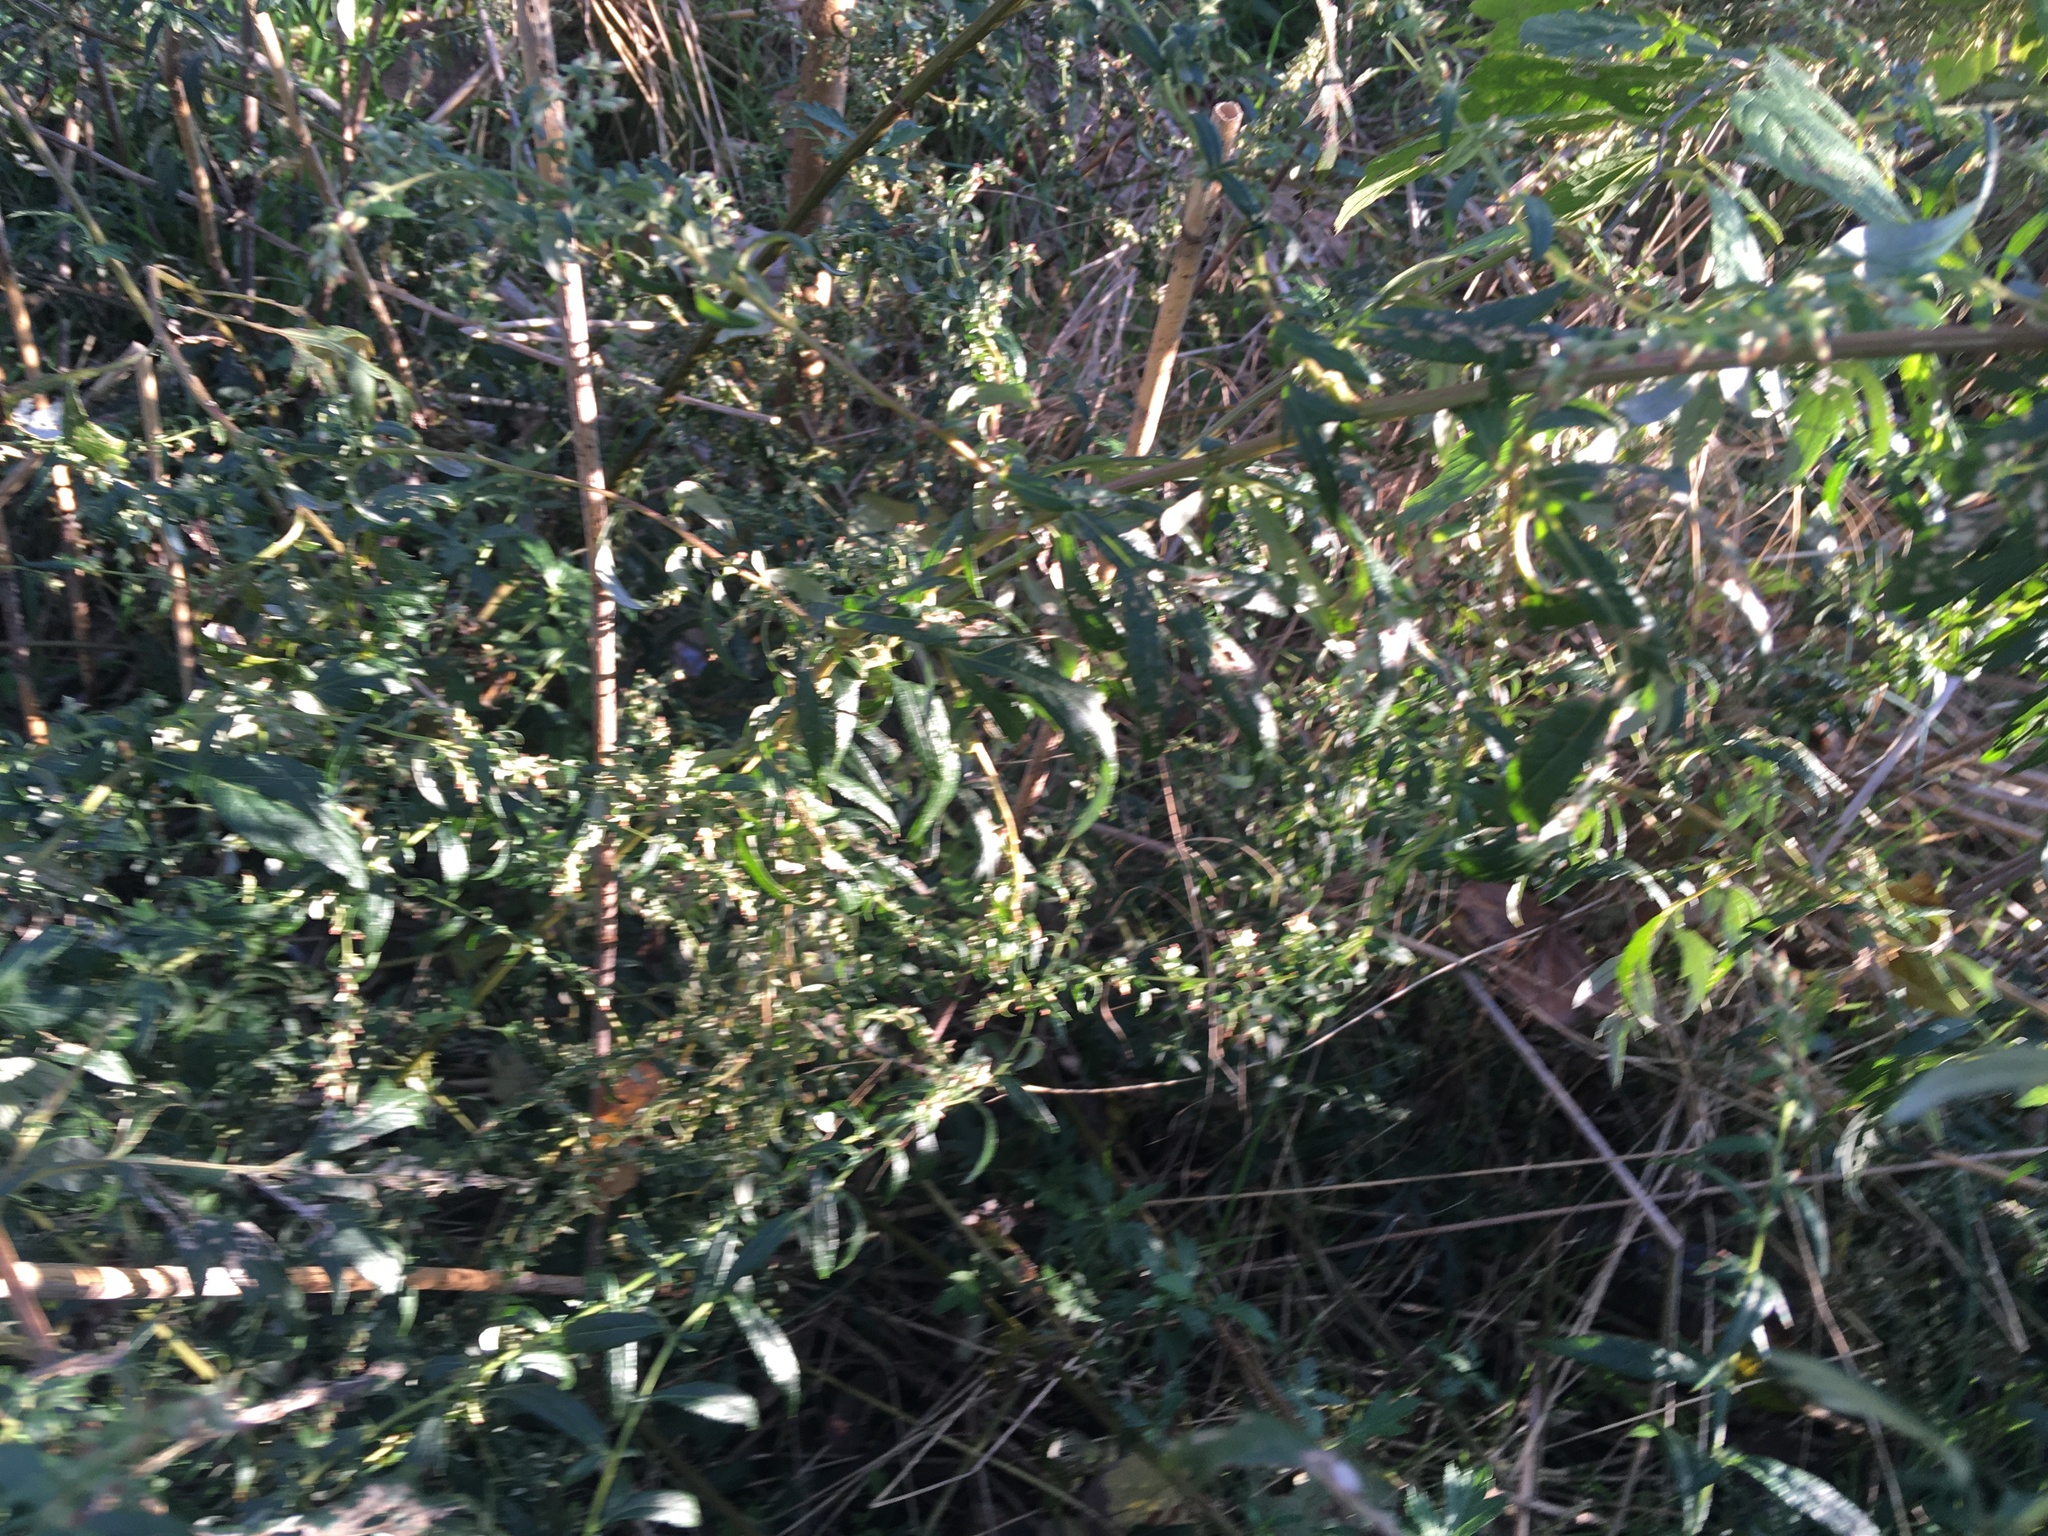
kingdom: Plantae
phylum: Tracheophyta
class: Magnoliopsida
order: Asterales
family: Asteraceae
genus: Artemisia
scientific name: Artemisia vulgaris
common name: Mugwort
